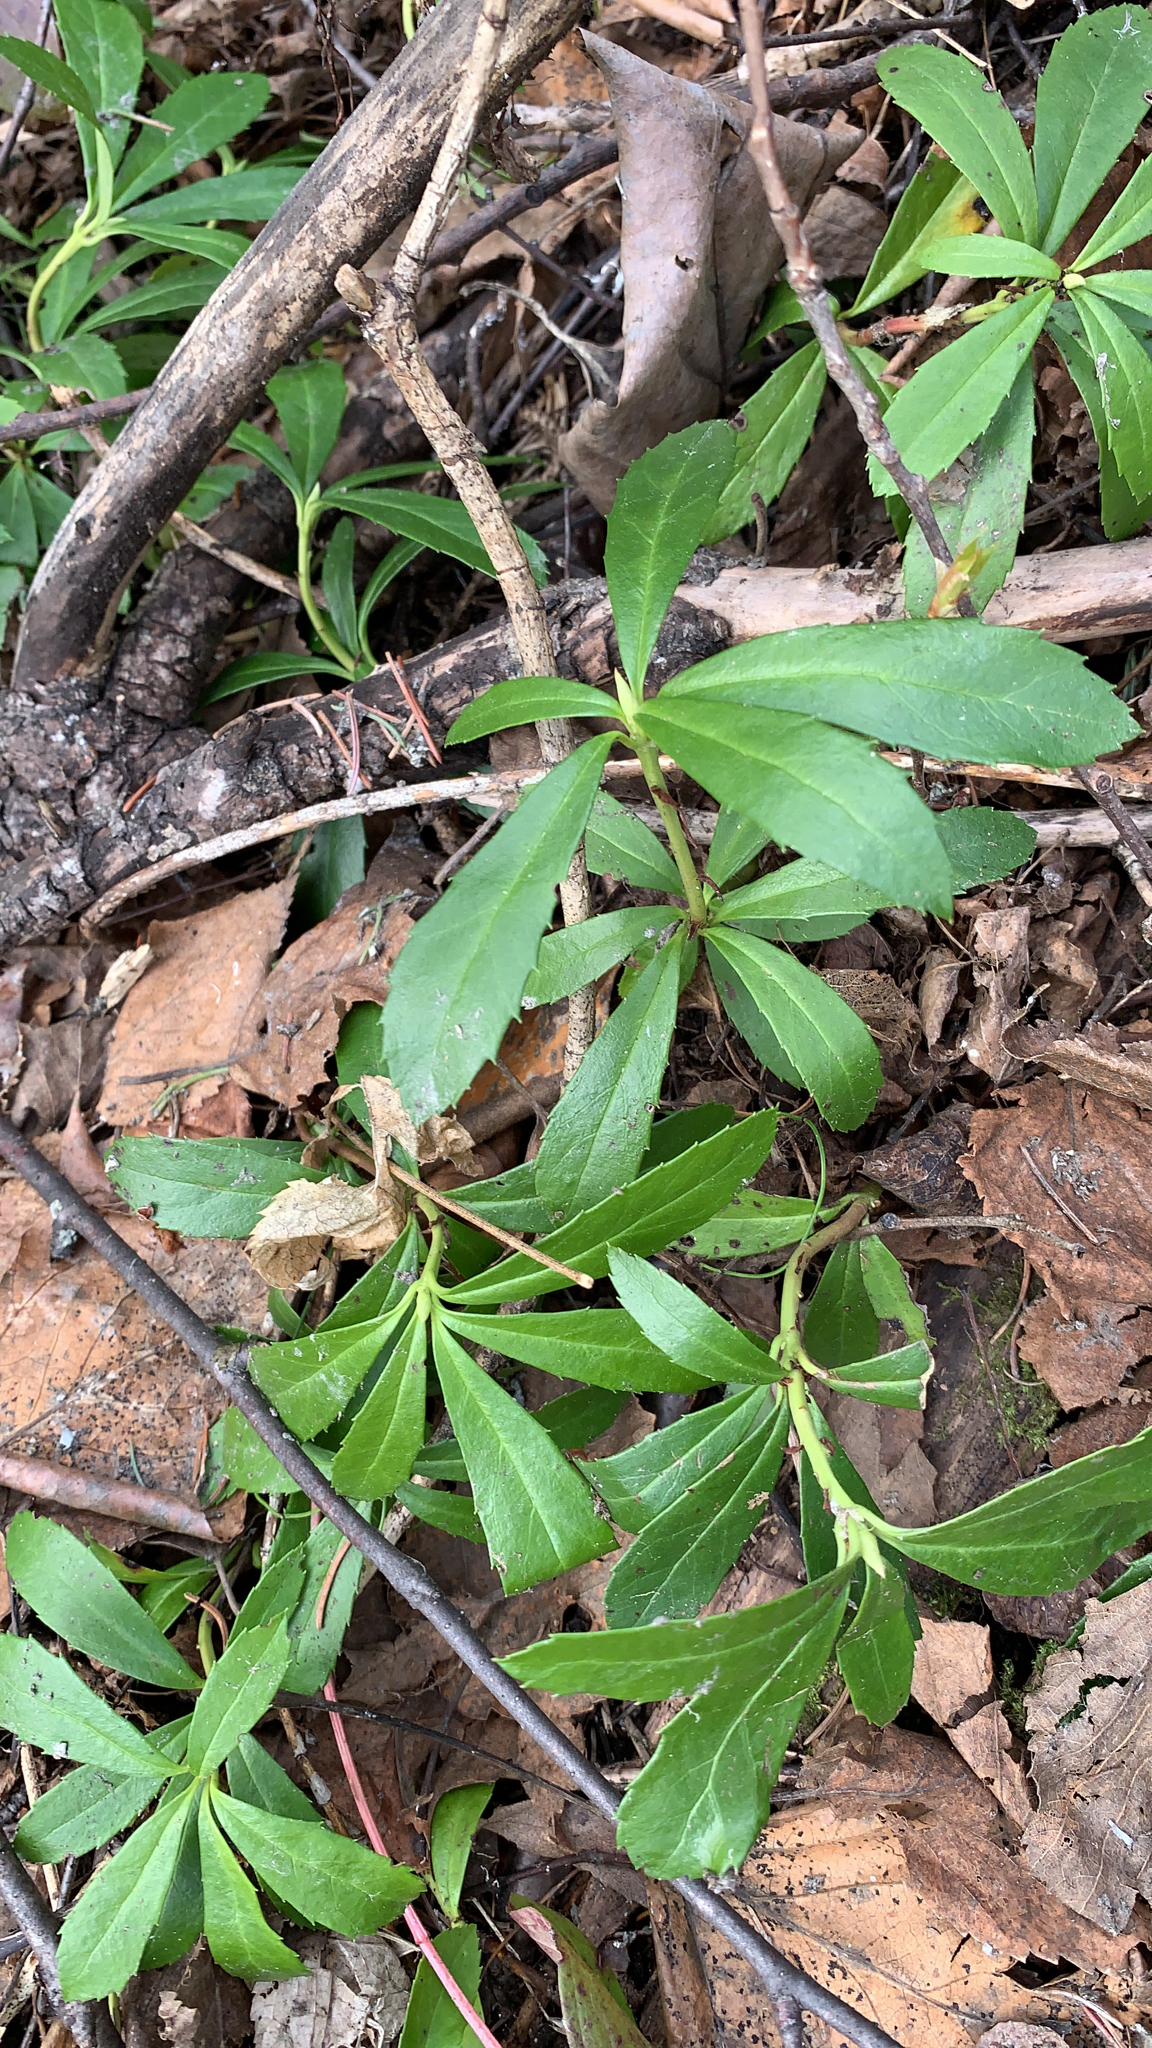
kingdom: Plantae
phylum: Tracheophyta
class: Magnoliopsida
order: Ericales
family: Ericaceae
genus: Chimaphila
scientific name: Chimaphila umbellata
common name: Pipsissewa
